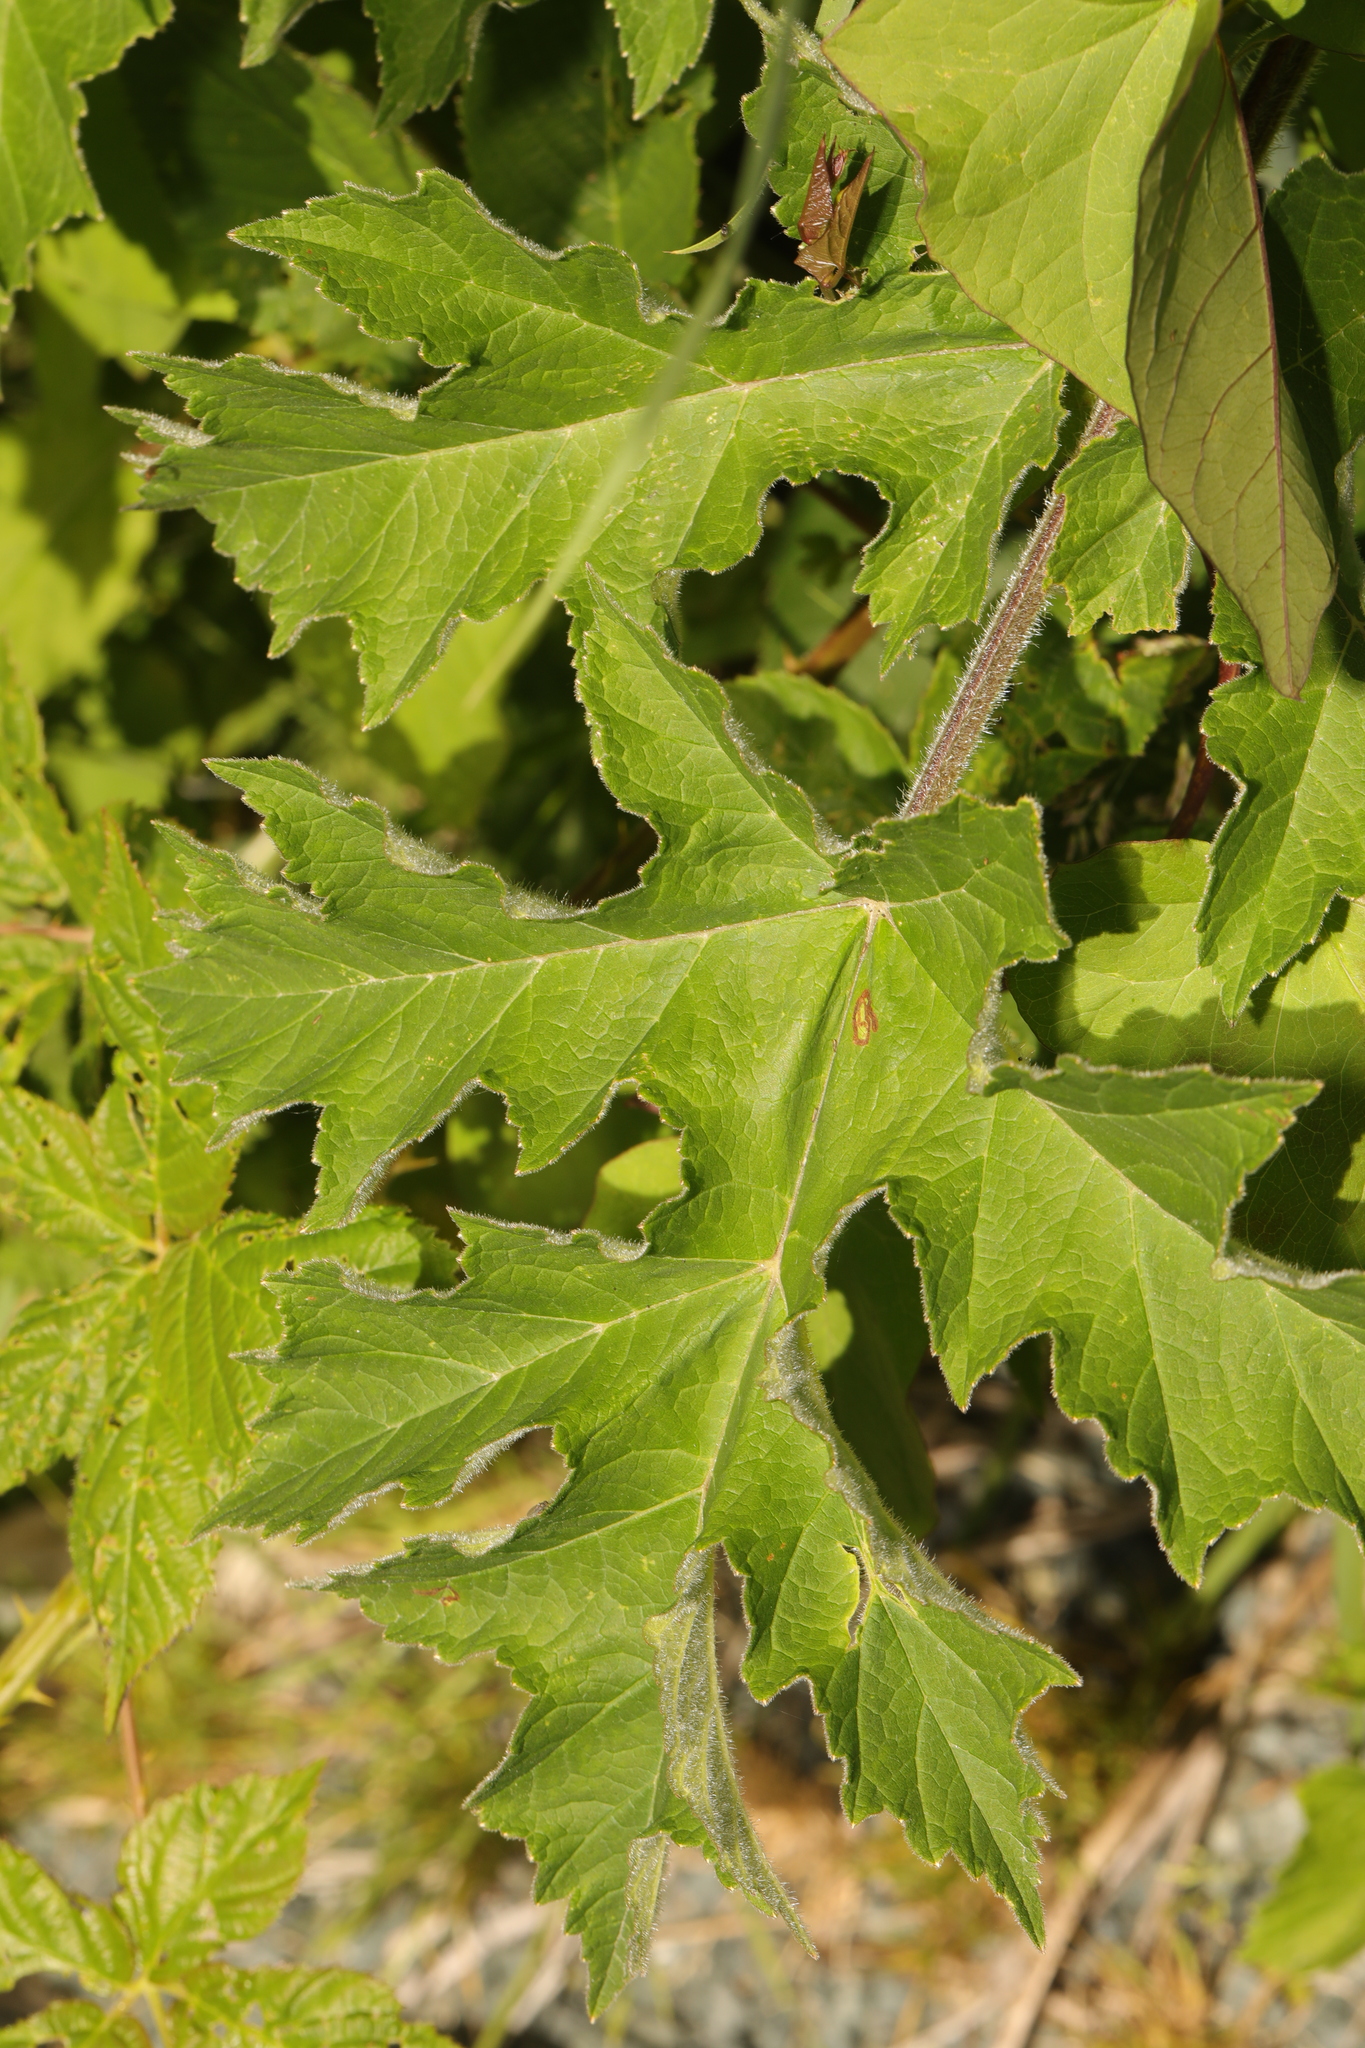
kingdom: Plantae
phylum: Tracheophyta
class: Magnoliopsida
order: Apiales
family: Apiaceae
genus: Heracleum
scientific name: Heracleum sphondylium
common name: Hogweed
